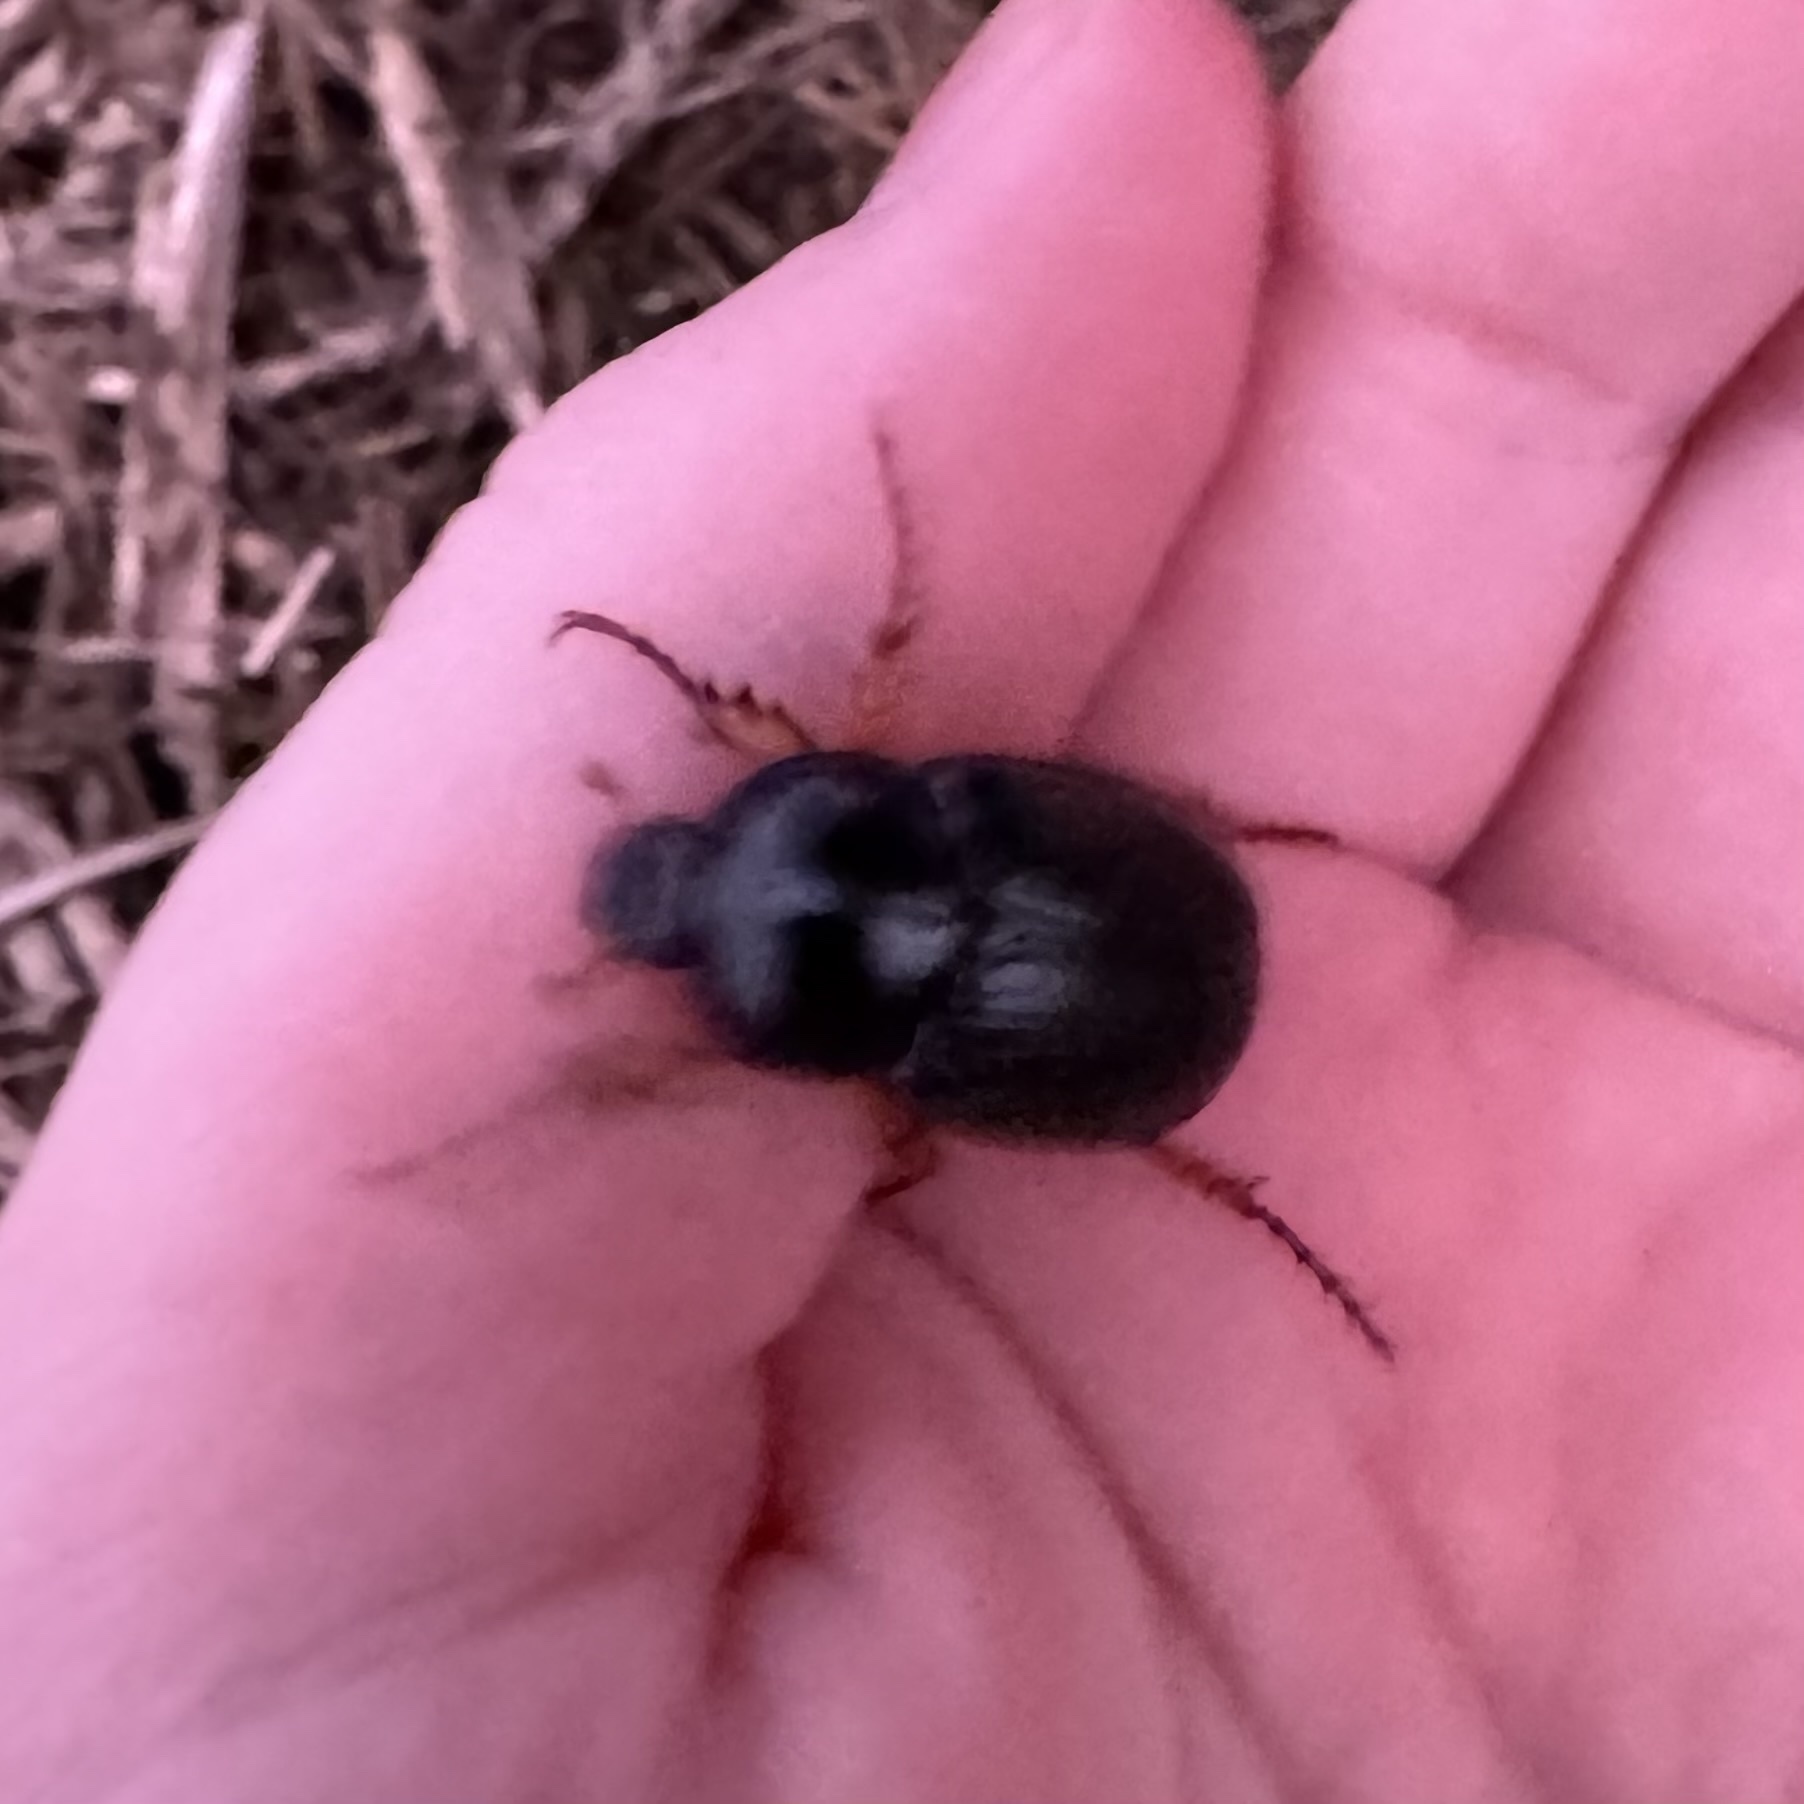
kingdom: Animalia
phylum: Arthropoda
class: Insecta
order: Coleoptera
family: Scarabaeidae
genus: Anomalomorpha
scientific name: Anomalomorpha anthracina
